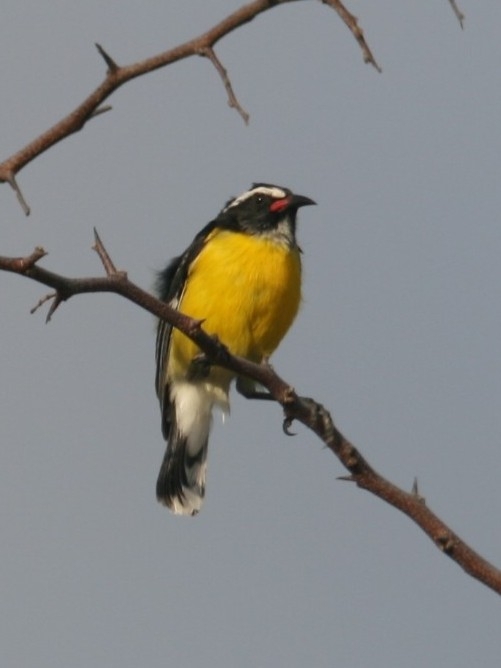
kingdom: Animalia
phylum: Chordata
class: Aves
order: Passeriformes
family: Thraupidae
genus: Coereba
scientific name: Coereba flaveola
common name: Bananaquit
